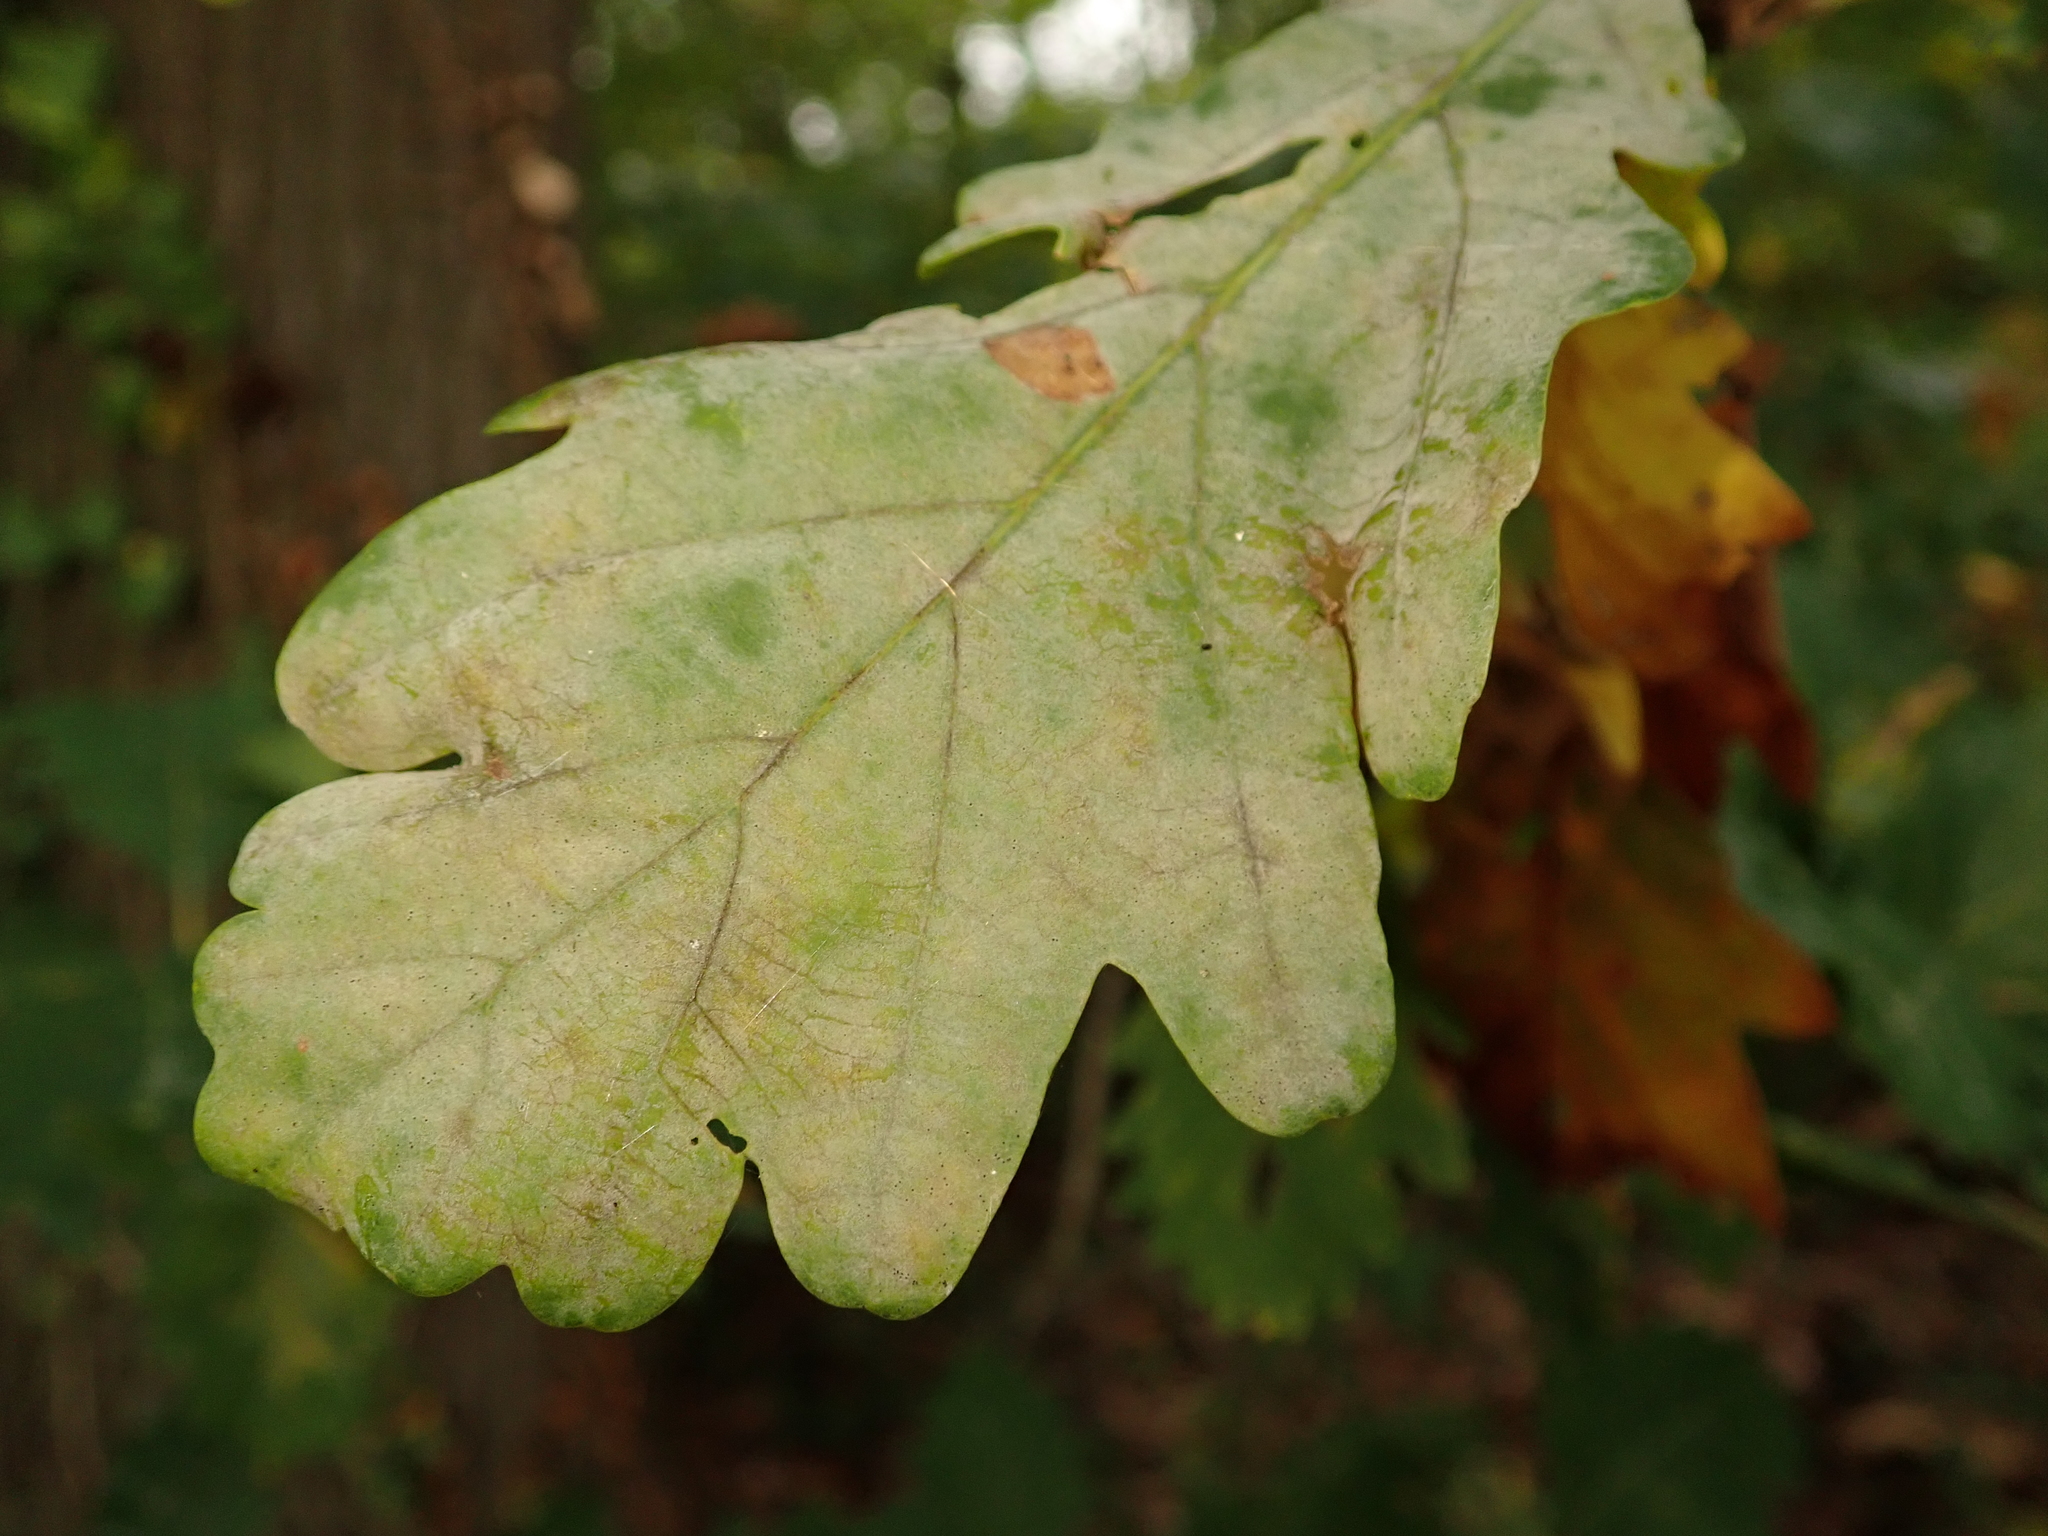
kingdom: Fungi
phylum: Ascomycota
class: Leotiomycetes
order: Helotiales
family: Erysiphaceae
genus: Erysiphe
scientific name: Erysiphe
